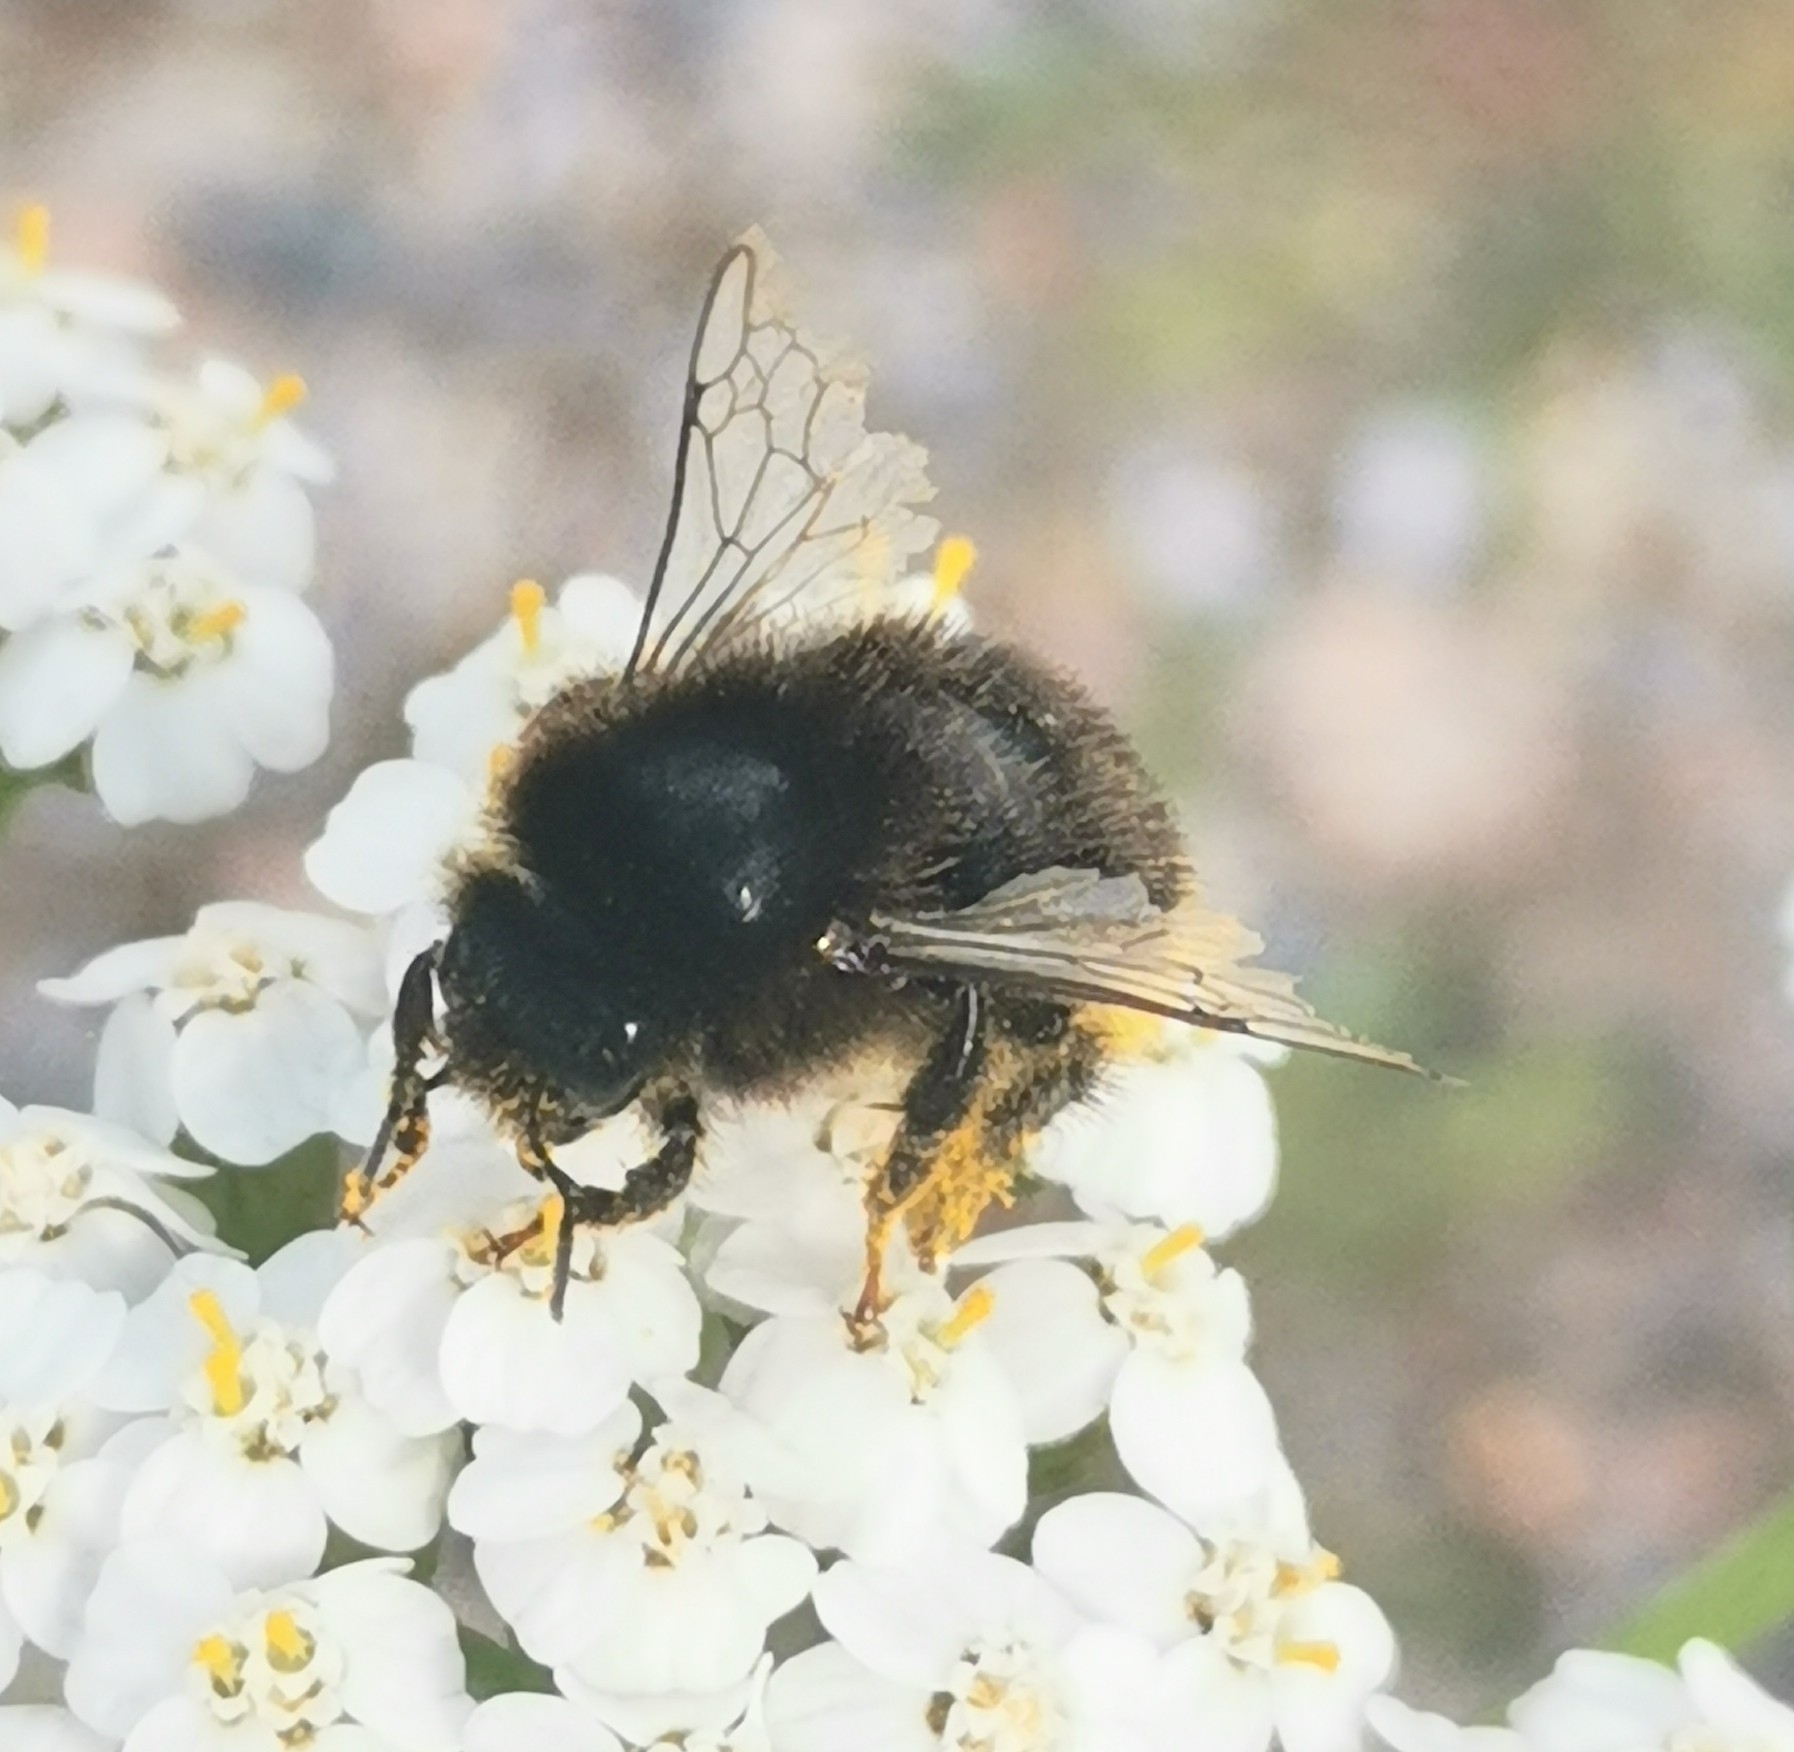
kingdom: Animalia
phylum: Arthropoda
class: Insecta
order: Hymenoptera
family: Apidae
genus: Bombus
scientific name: Bombus lapidarius
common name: Large red-tailed humble-bee
